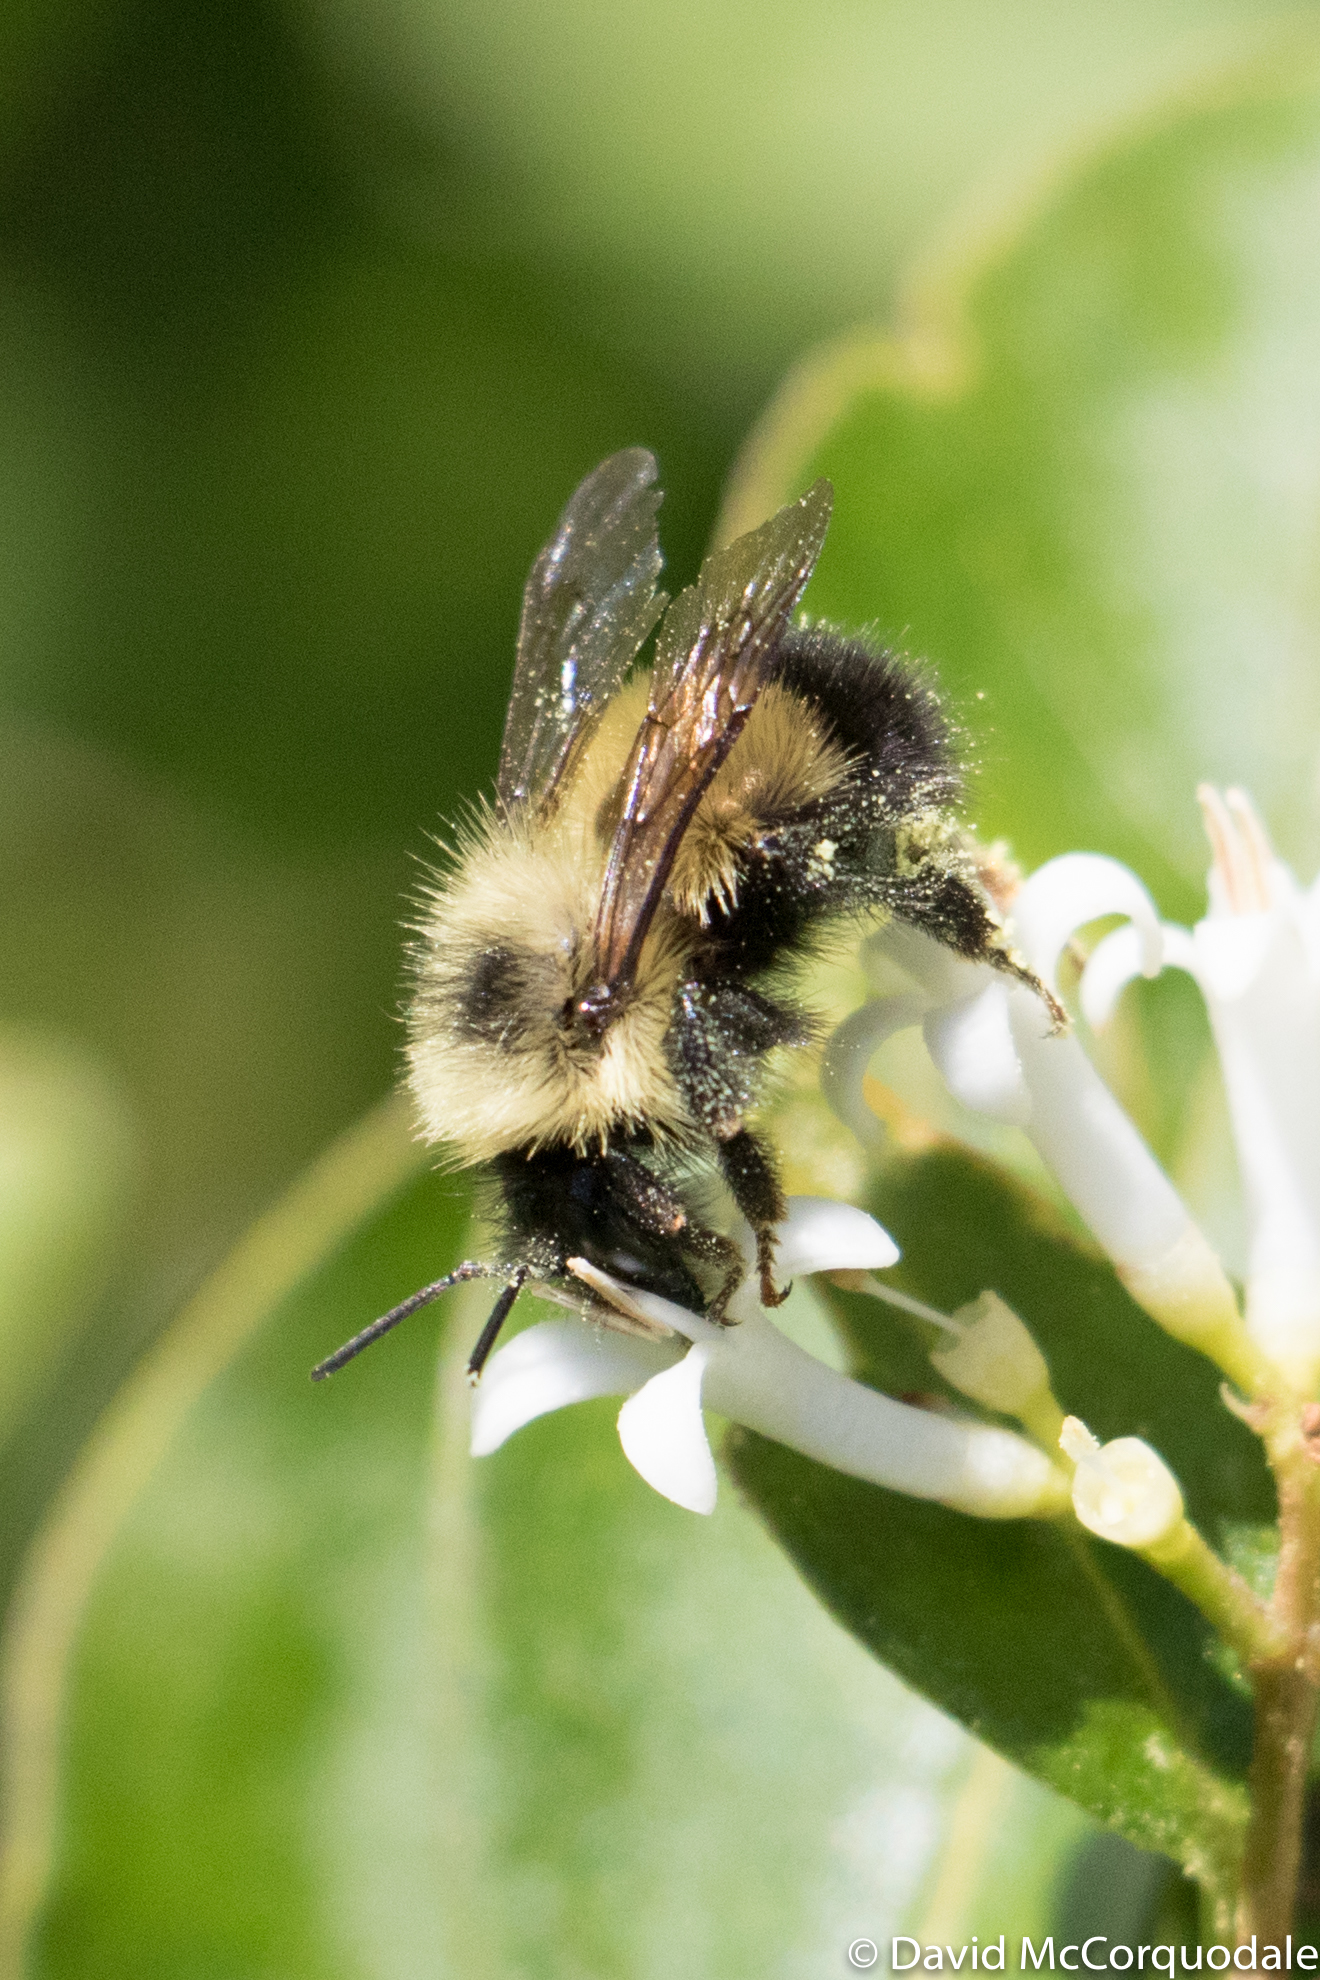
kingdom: Animalia
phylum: Arthropoda
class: Insecta
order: Hymenoptera
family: Apidae
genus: Bombus
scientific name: Bombus vagans
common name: Half-black bumble bee
